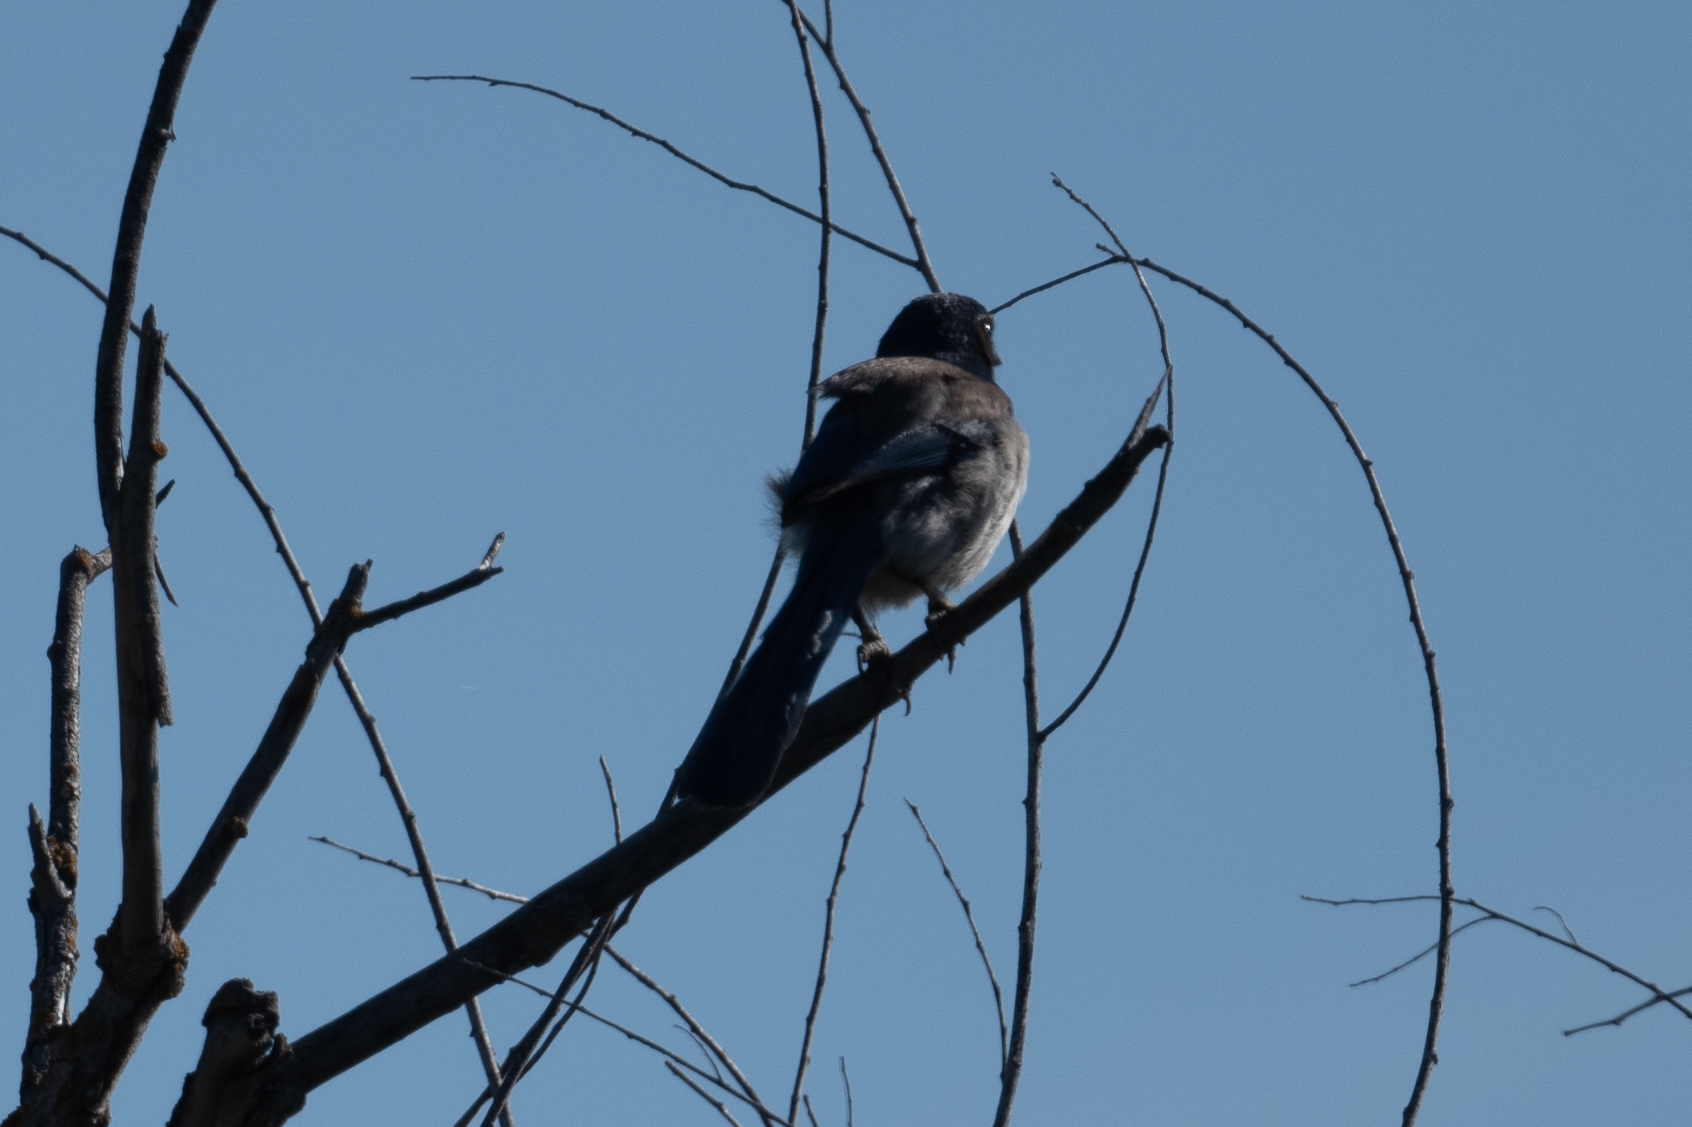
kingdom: Animalia
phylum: Chordata
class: Aves
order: Passeriformes
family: Corvidae
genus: Aphelocoma
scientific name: Aphelocoma californica
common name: California scrub-jay
